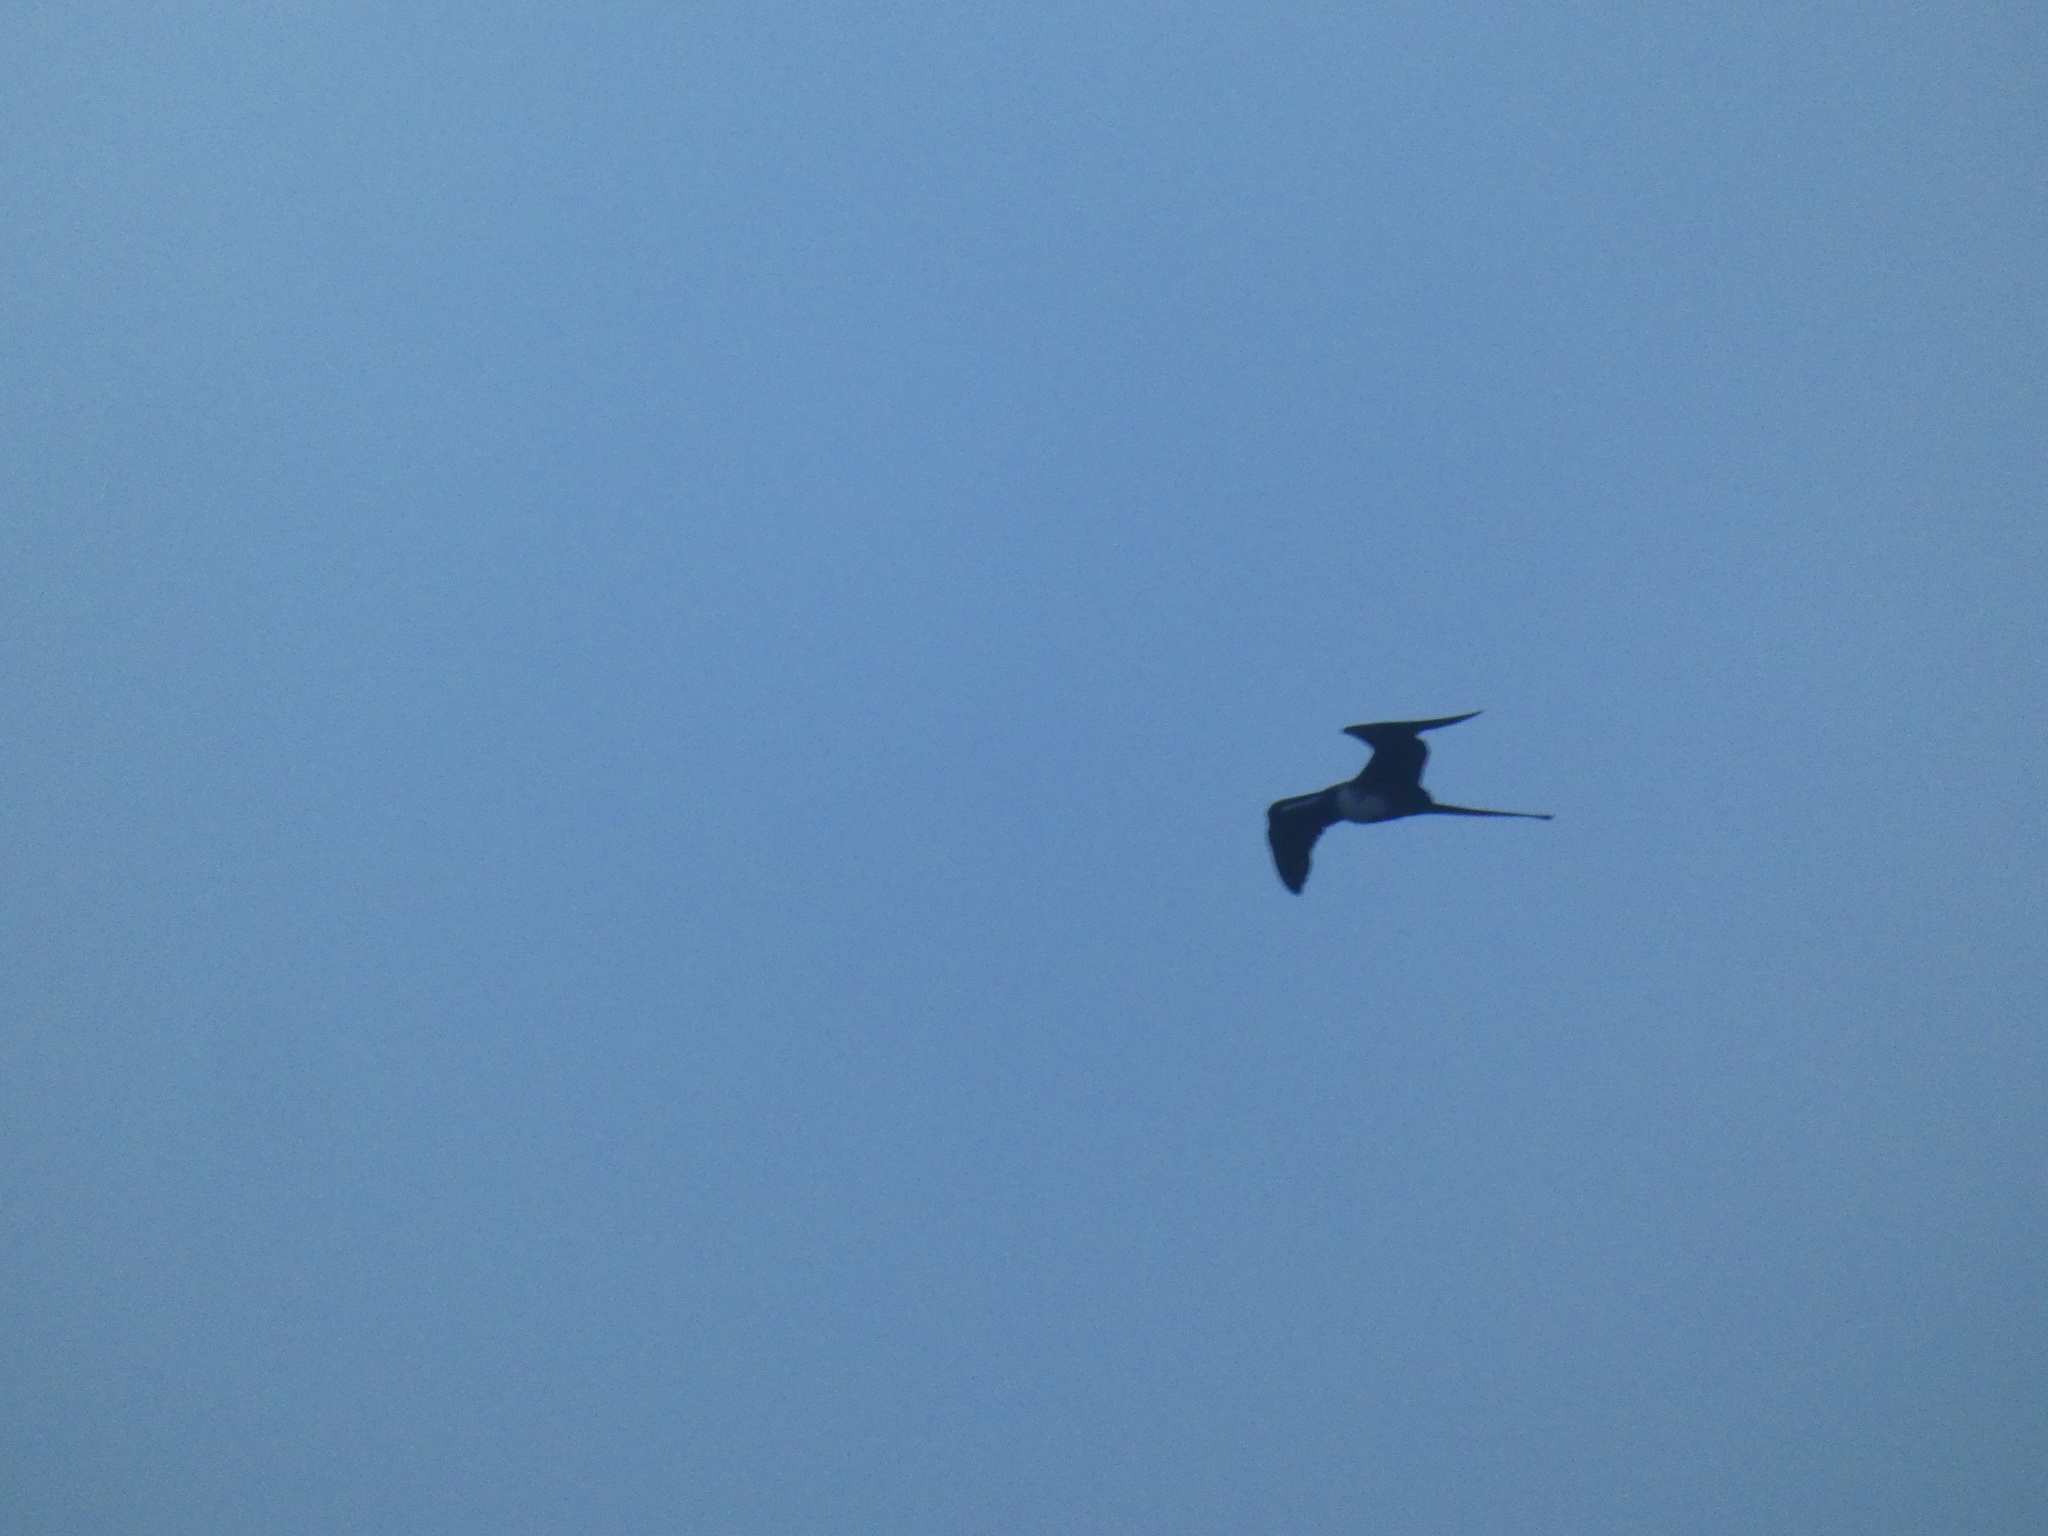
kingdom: Animalia
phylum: Chordata
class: Aves
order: Suliformes
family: Fregatidae
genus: Fregata
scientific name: Fregata magnificens
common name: Magnificent frigatebird
